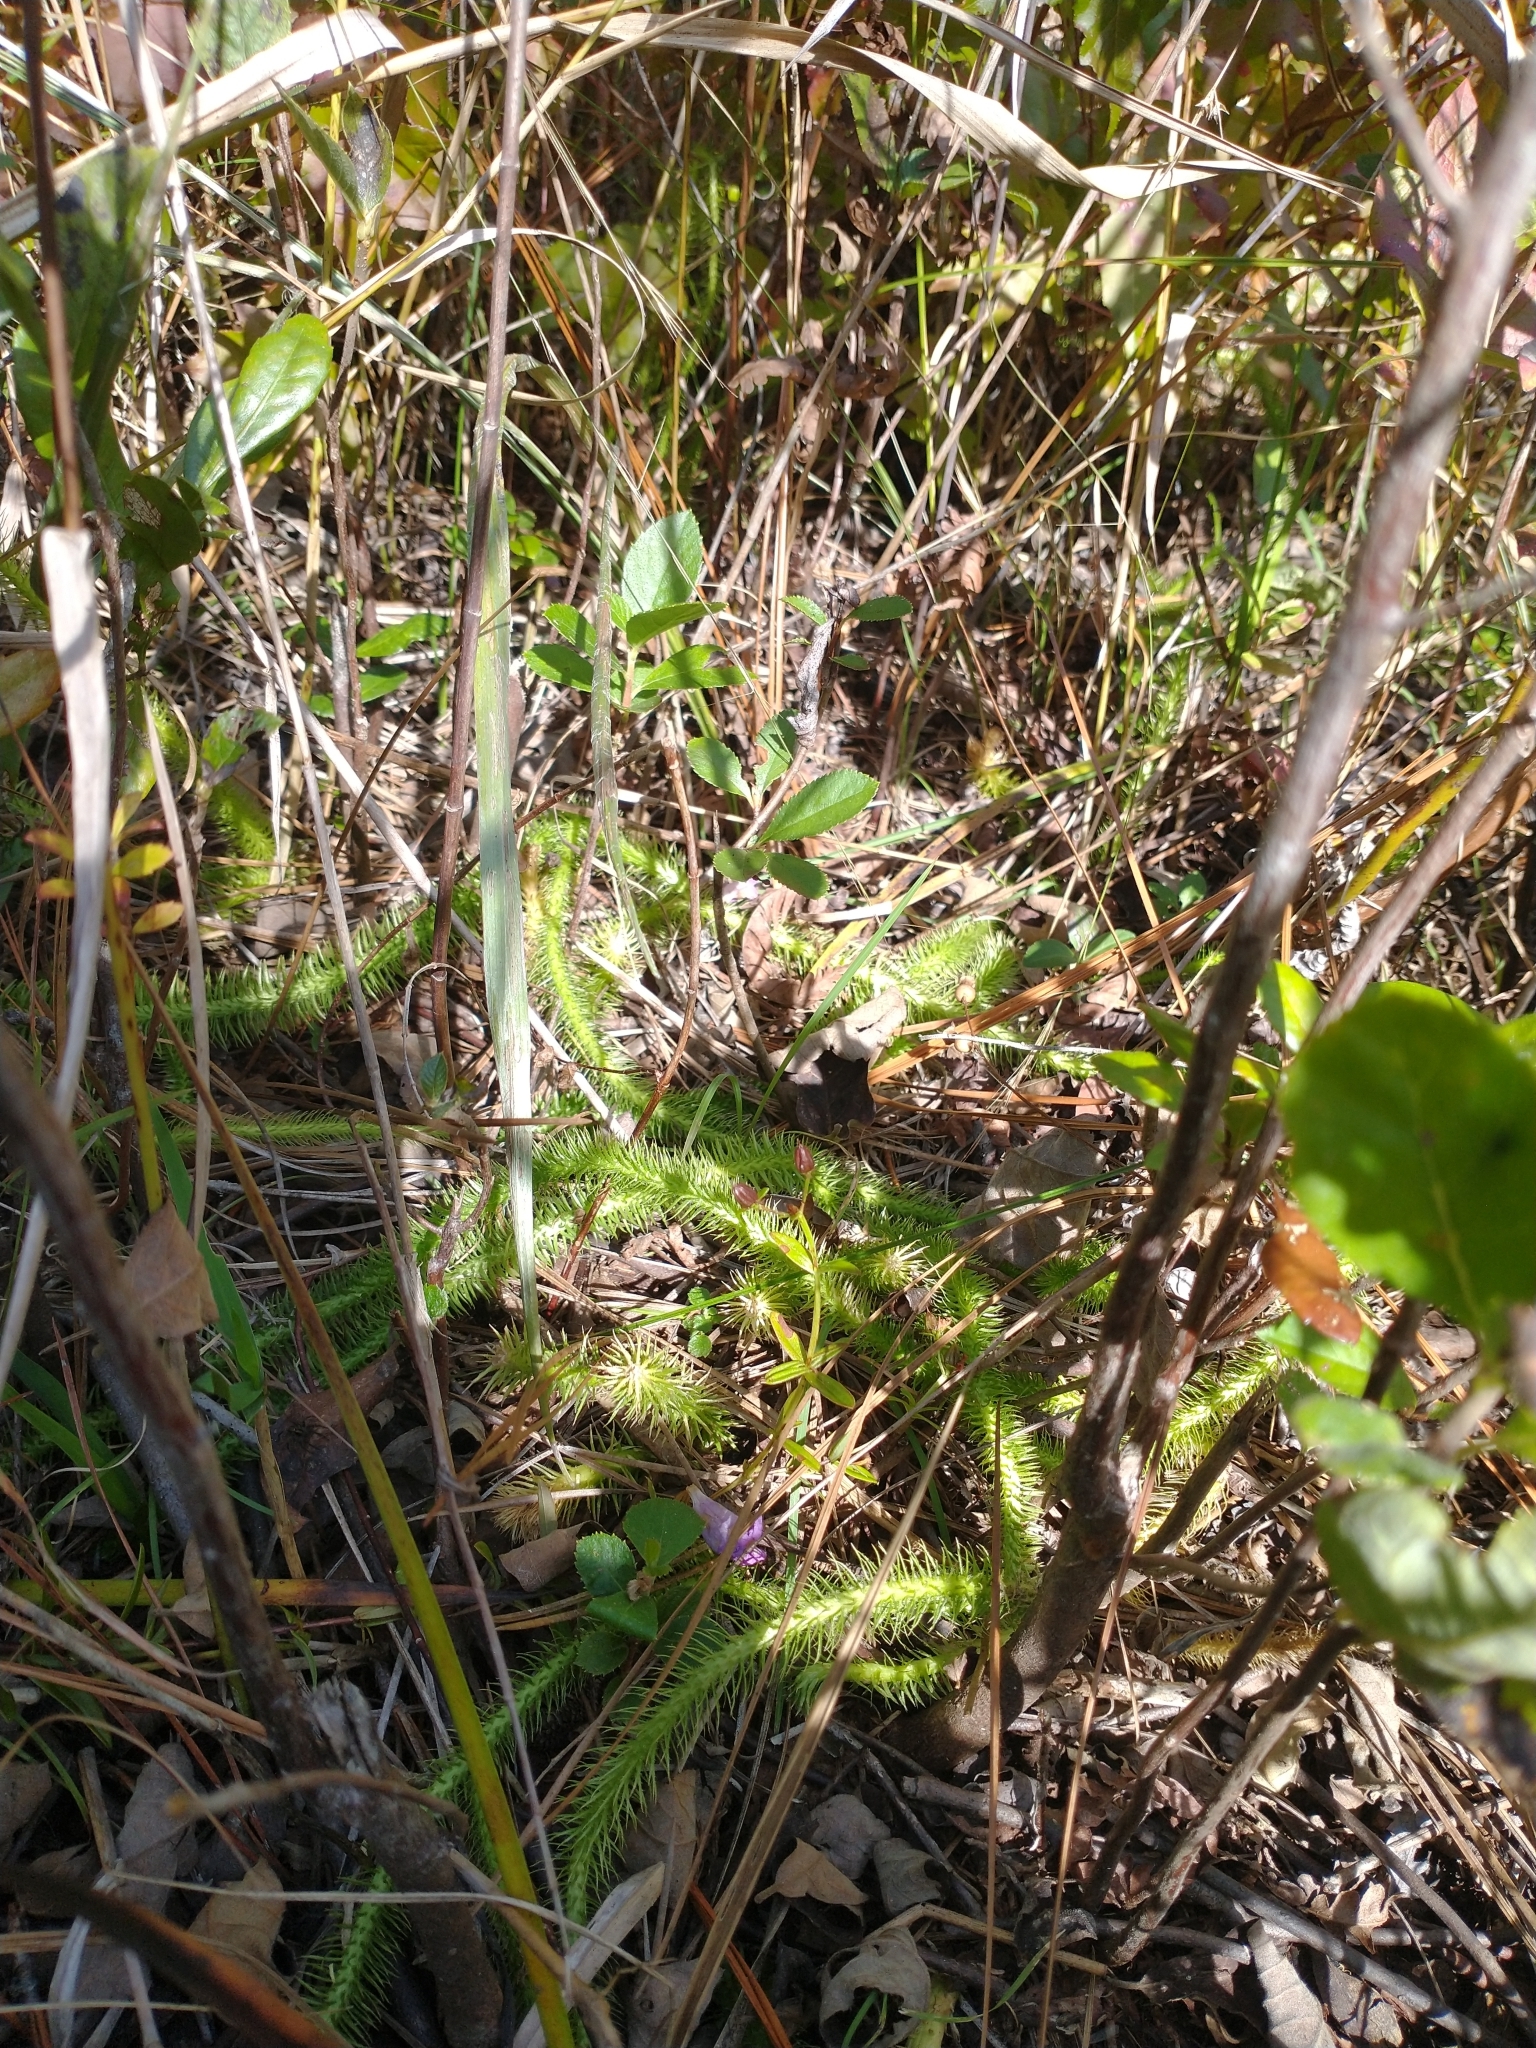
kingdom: Plantae
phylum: Tracheophyta
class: Lycopodiopsida
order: Lycopodiales
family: Lycopodiaceae
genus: Lycopodiella
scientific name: Lycopodiella alopecuroides
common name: Foxtail clubmoss
